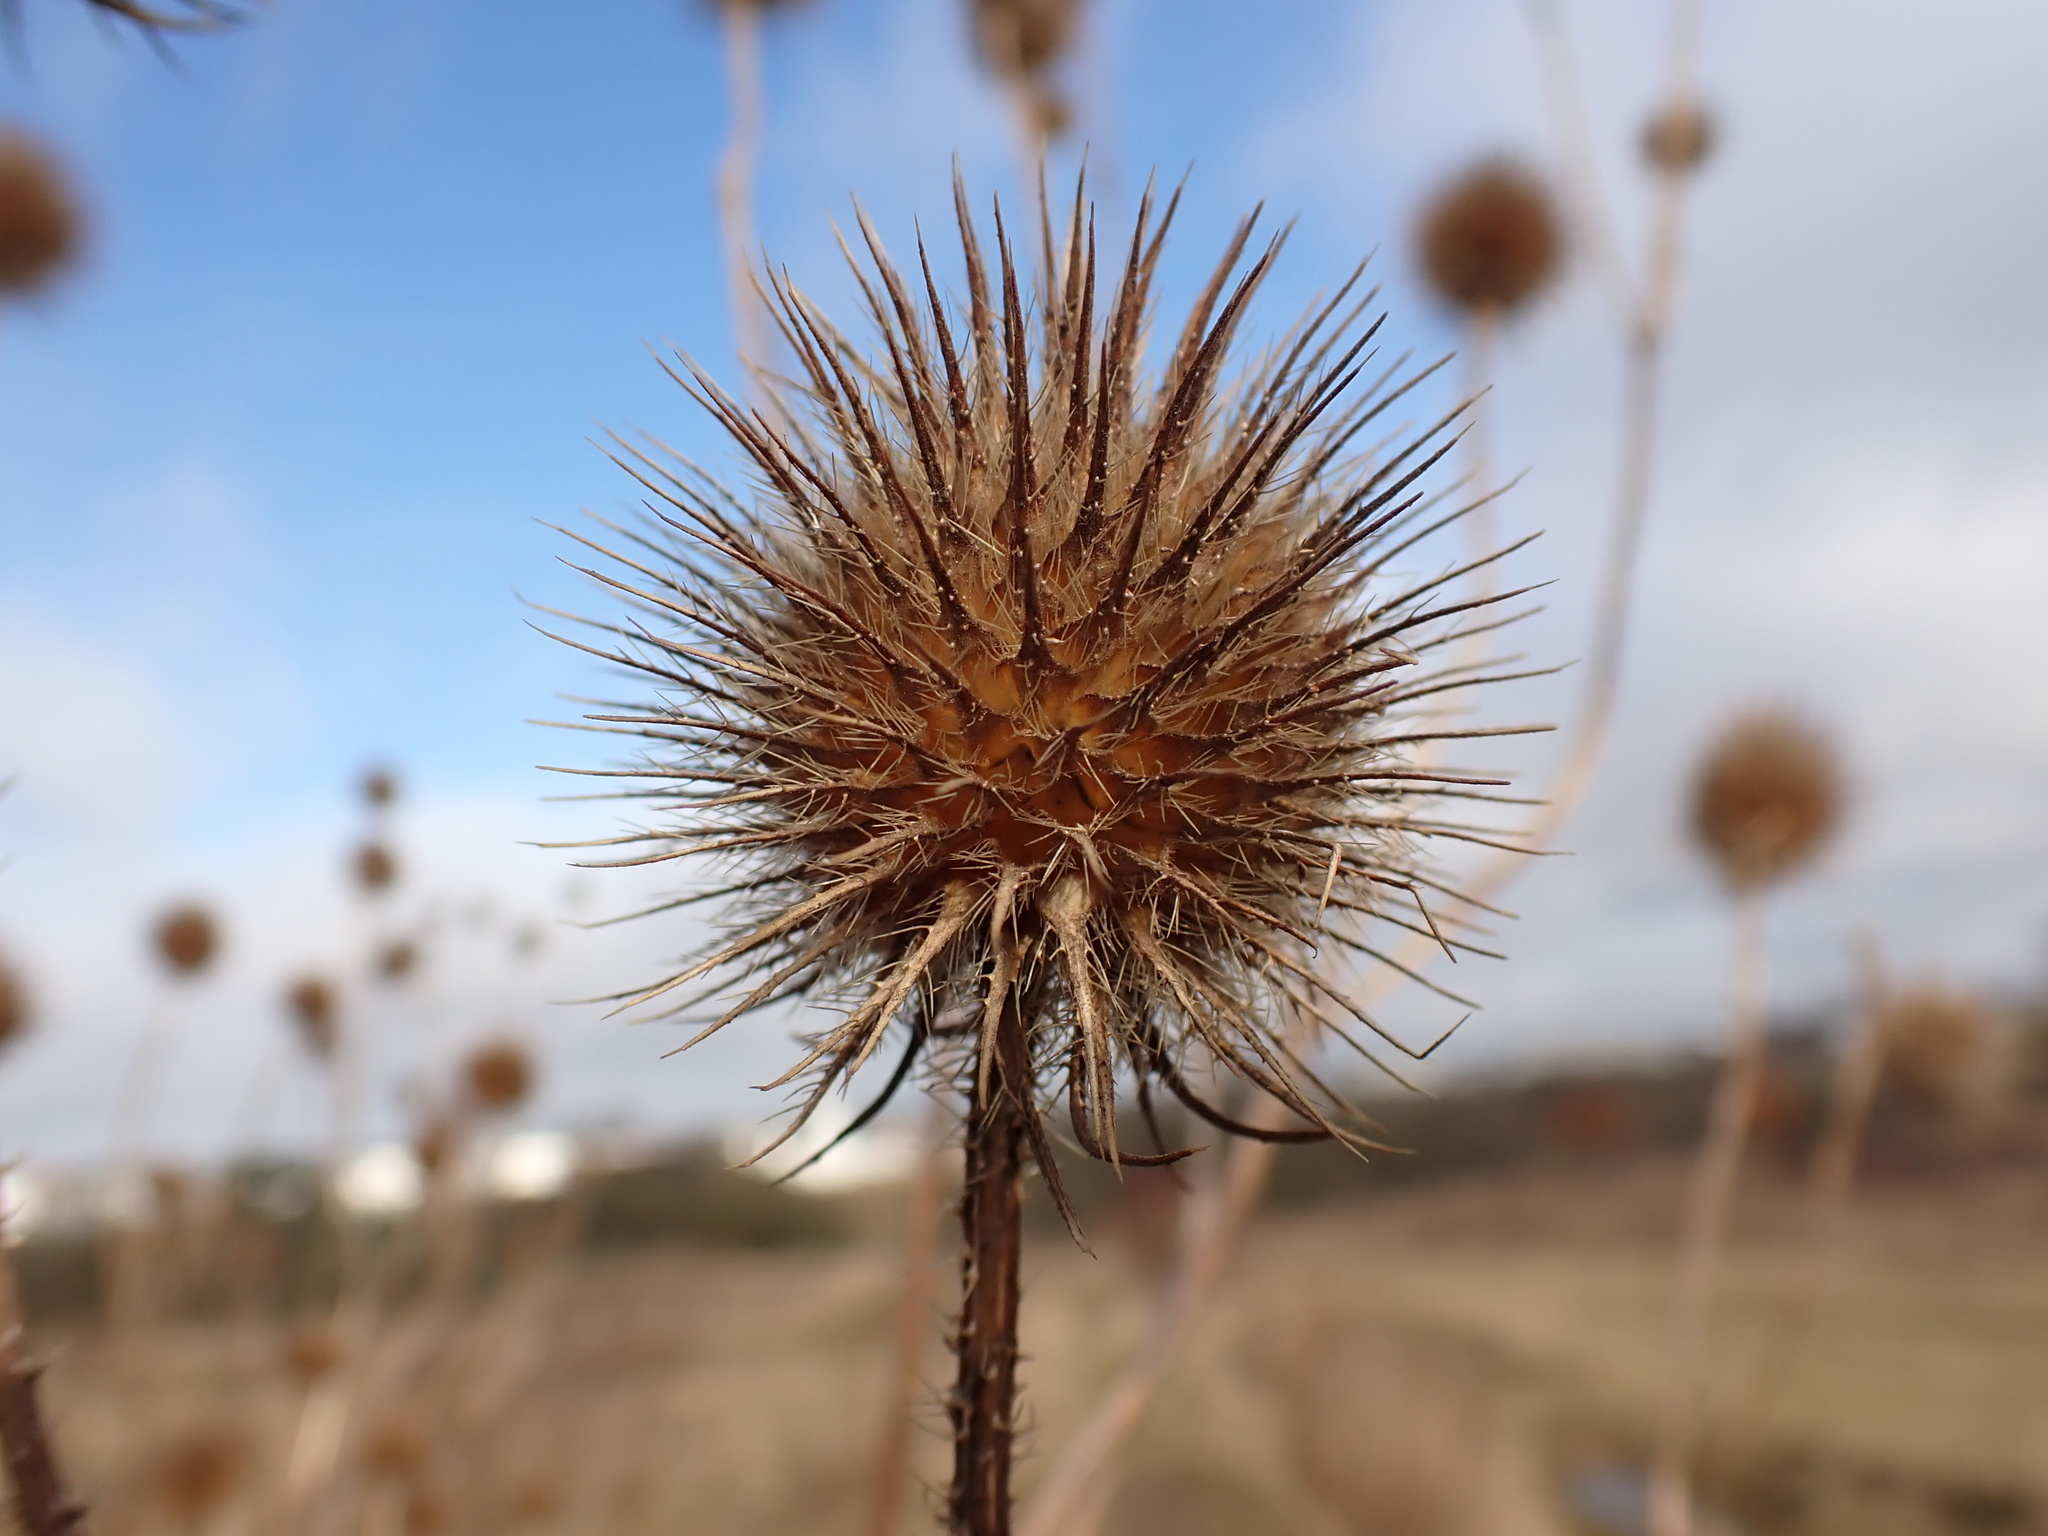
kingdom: Plantae
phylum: Tracheophyta
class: Magnoliopsida
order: Dipsacales
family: Caprifoliaceae
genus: Dipsacus
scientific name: Dipsacus strigosus
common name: Yellow-flowered teasel
